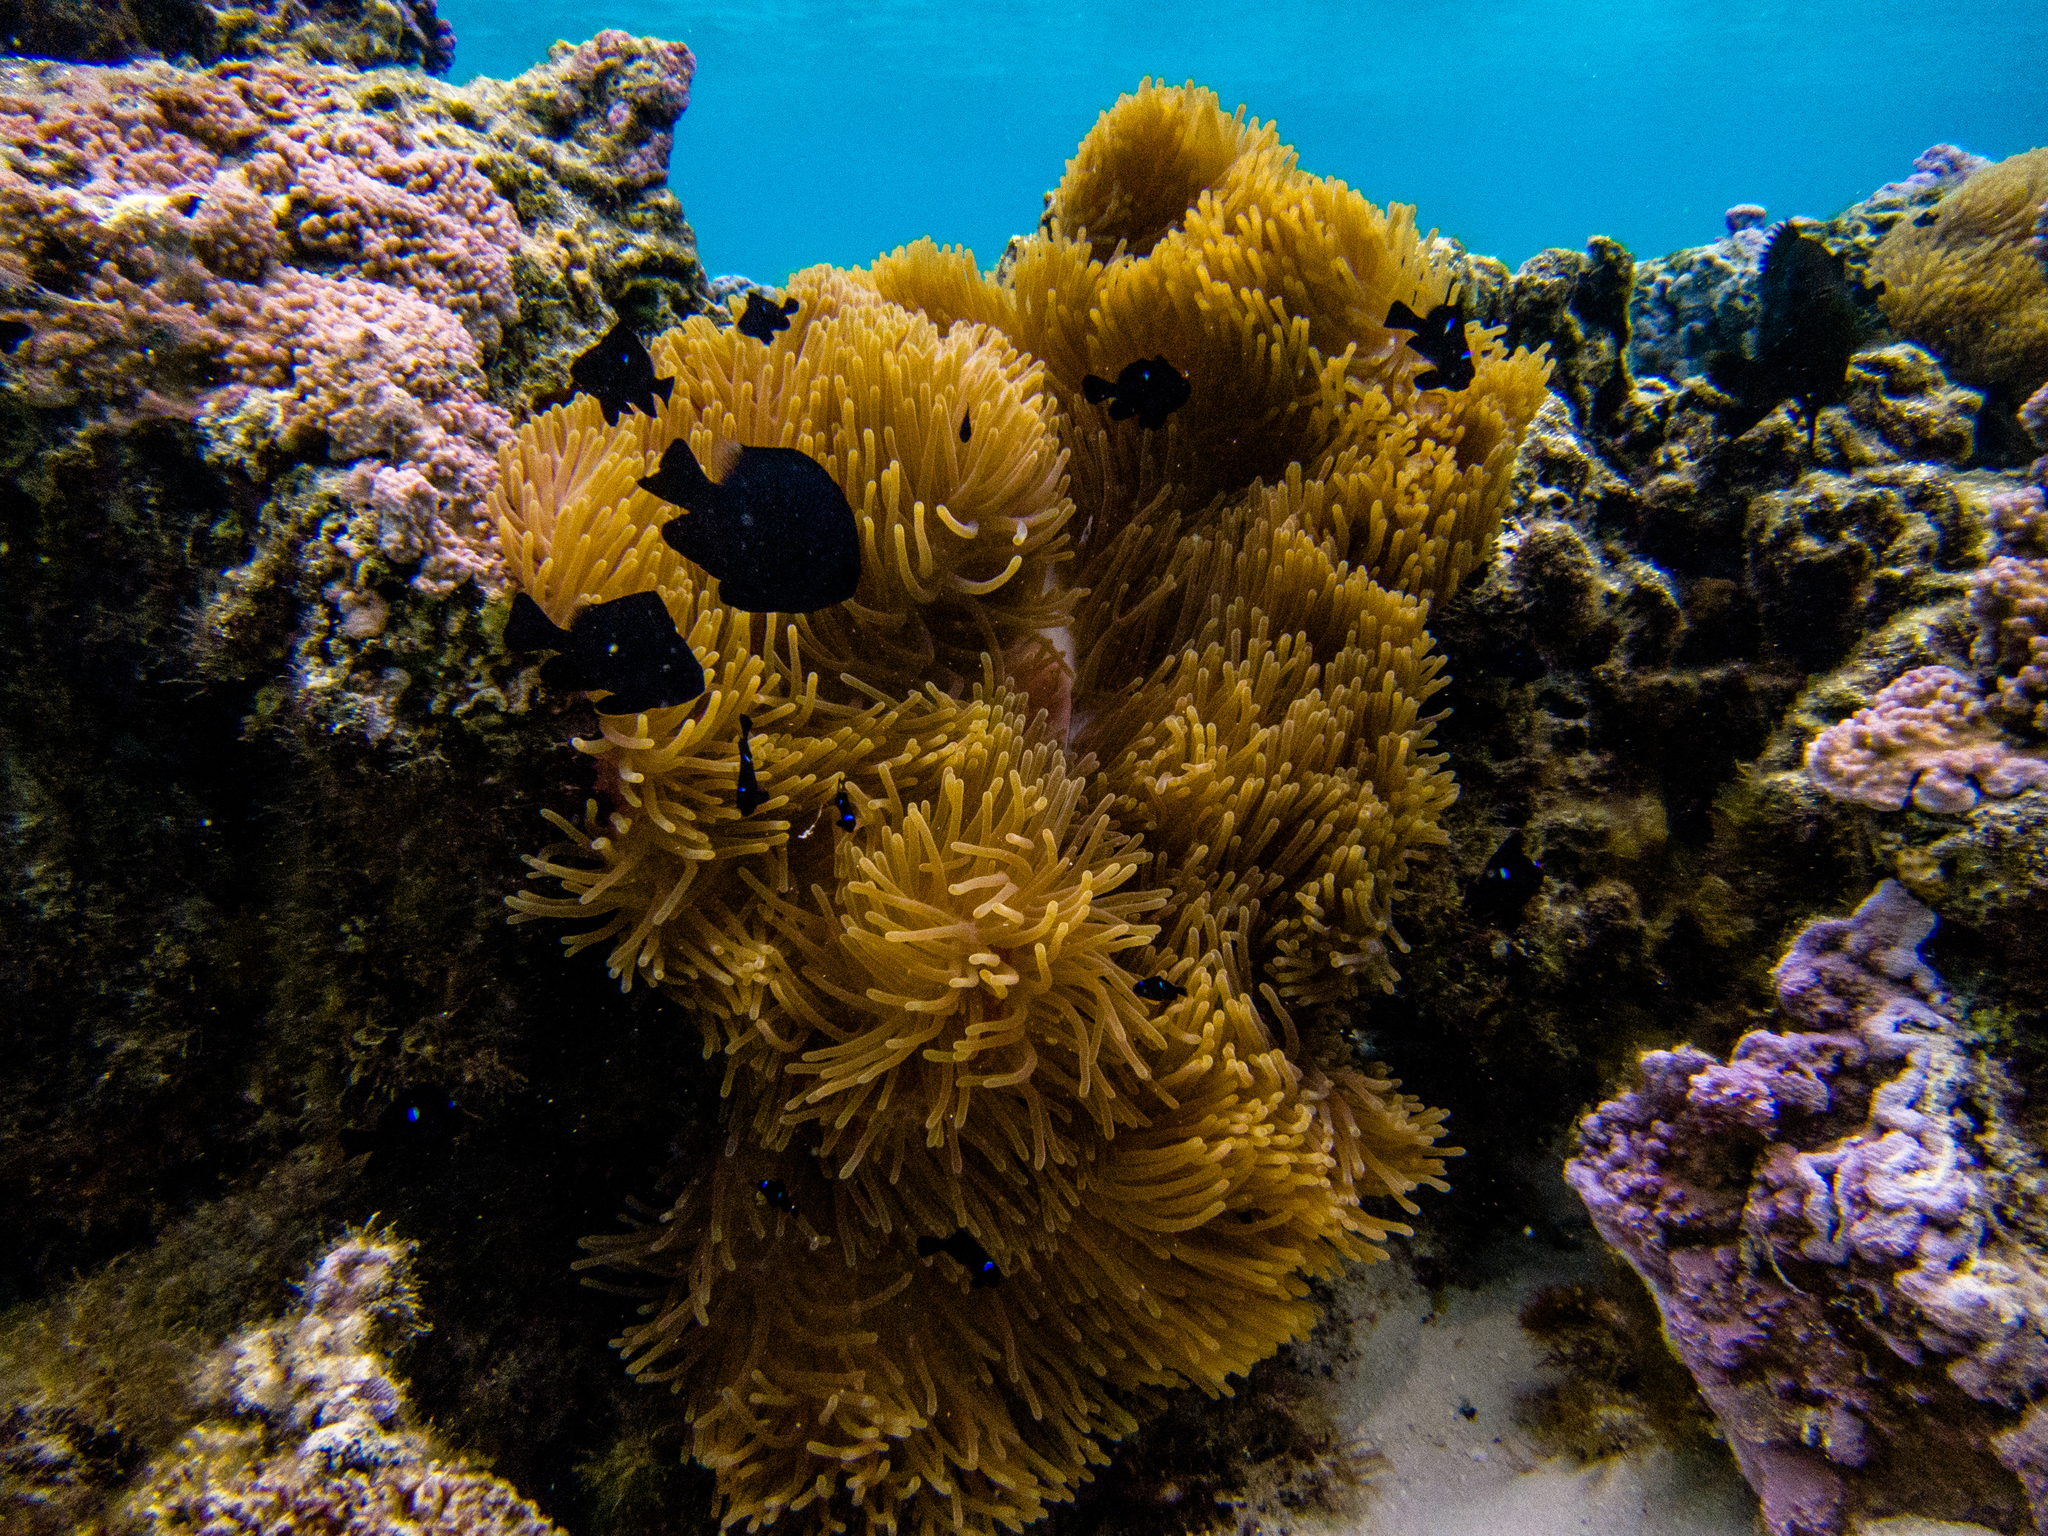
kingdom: Animalia
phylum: Cnidaria
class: Anthozoa
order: Actiniaria
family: Stichodactylidae
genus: Radianthus
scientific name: Radianthus magnifica
